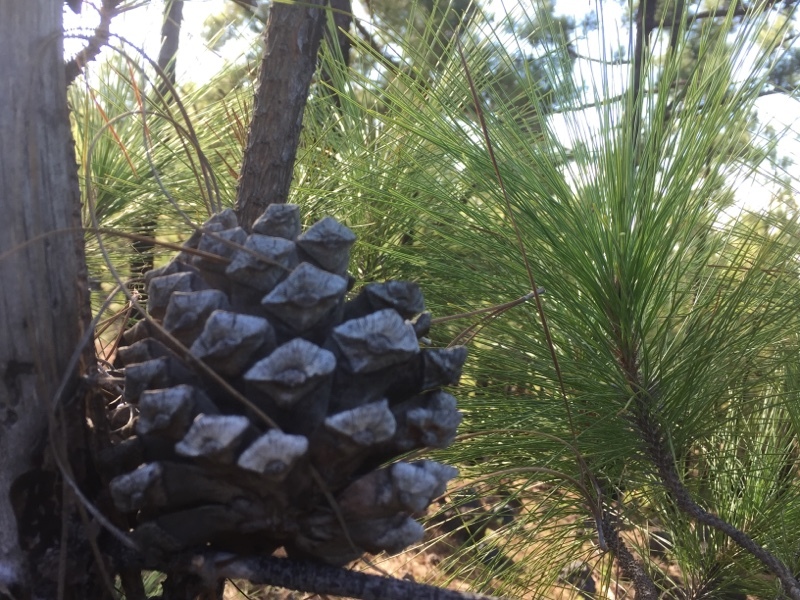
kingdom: Plantae
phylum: Tracheophyta
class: Pinopsida
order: Pinales
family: Pinaceae
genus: Pinus
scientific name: Pinus canariensis
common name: Canary islands pine
